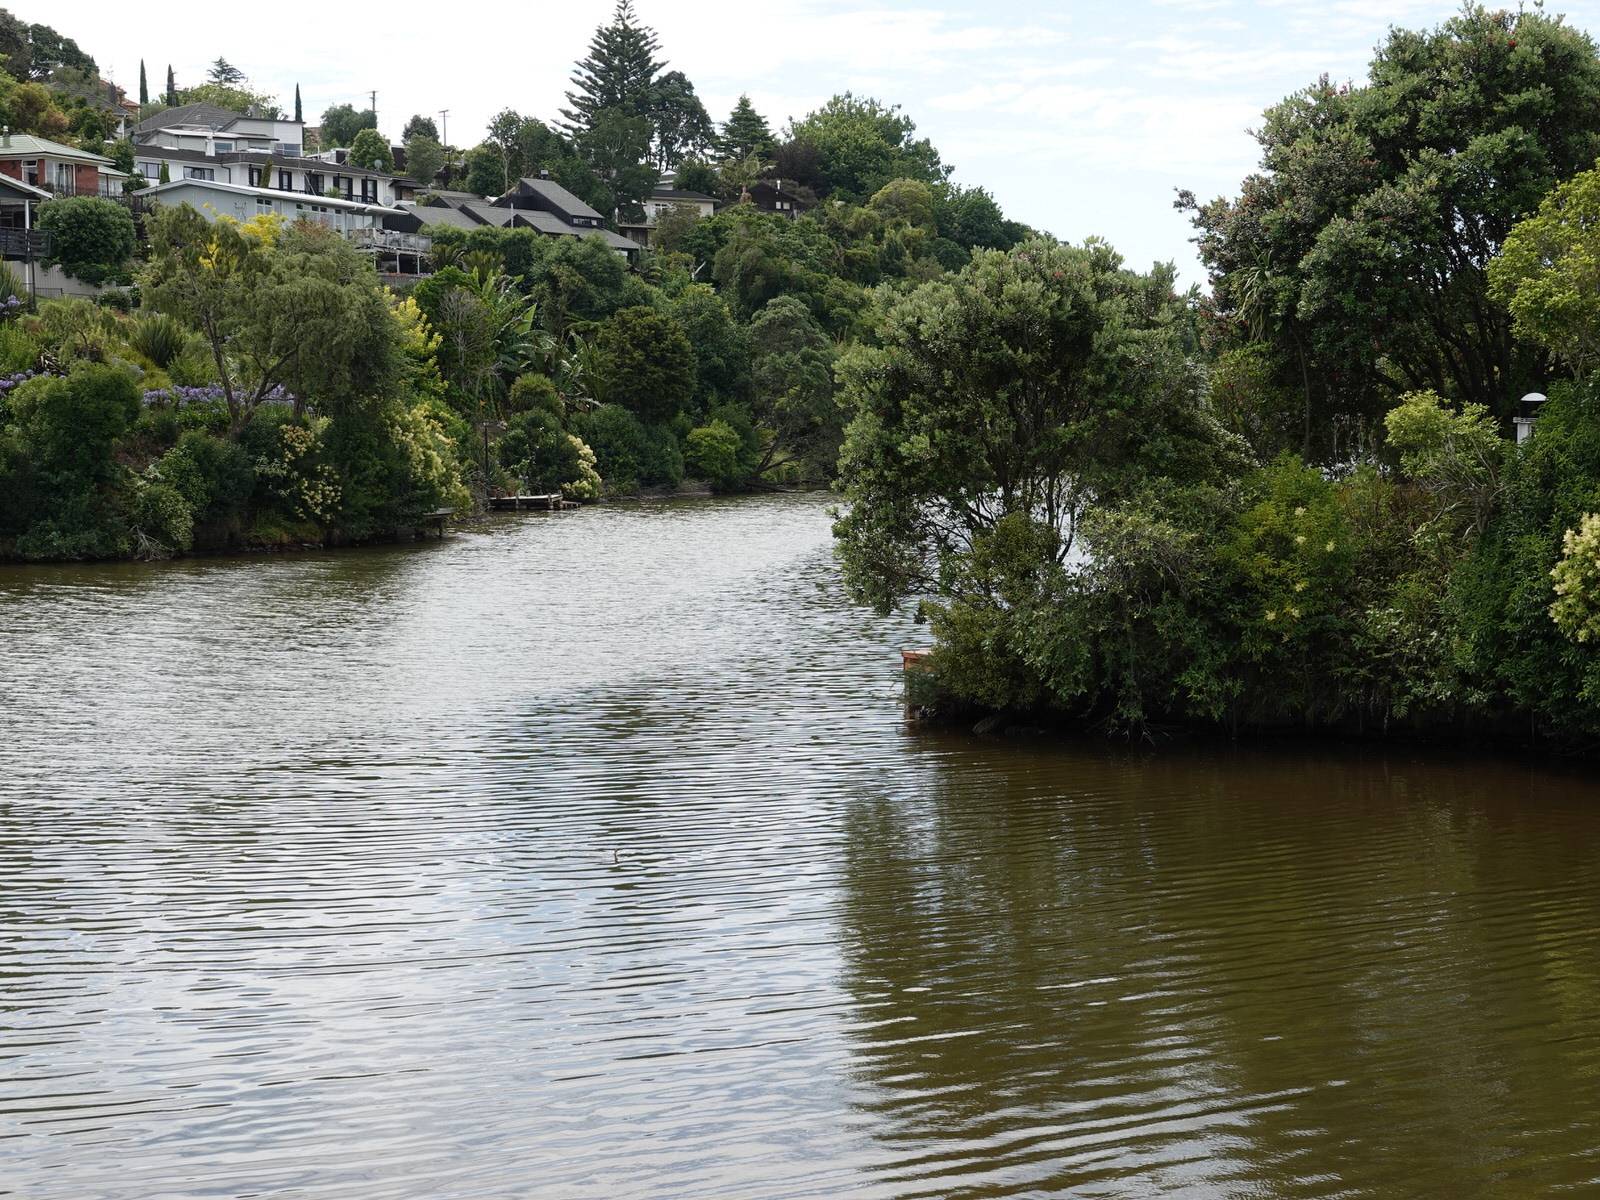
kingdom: Animalia
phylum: Chordata
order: Perciformes
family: Kyphosidae
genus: Girella
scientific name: Girella tricuspidata
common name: Parore
